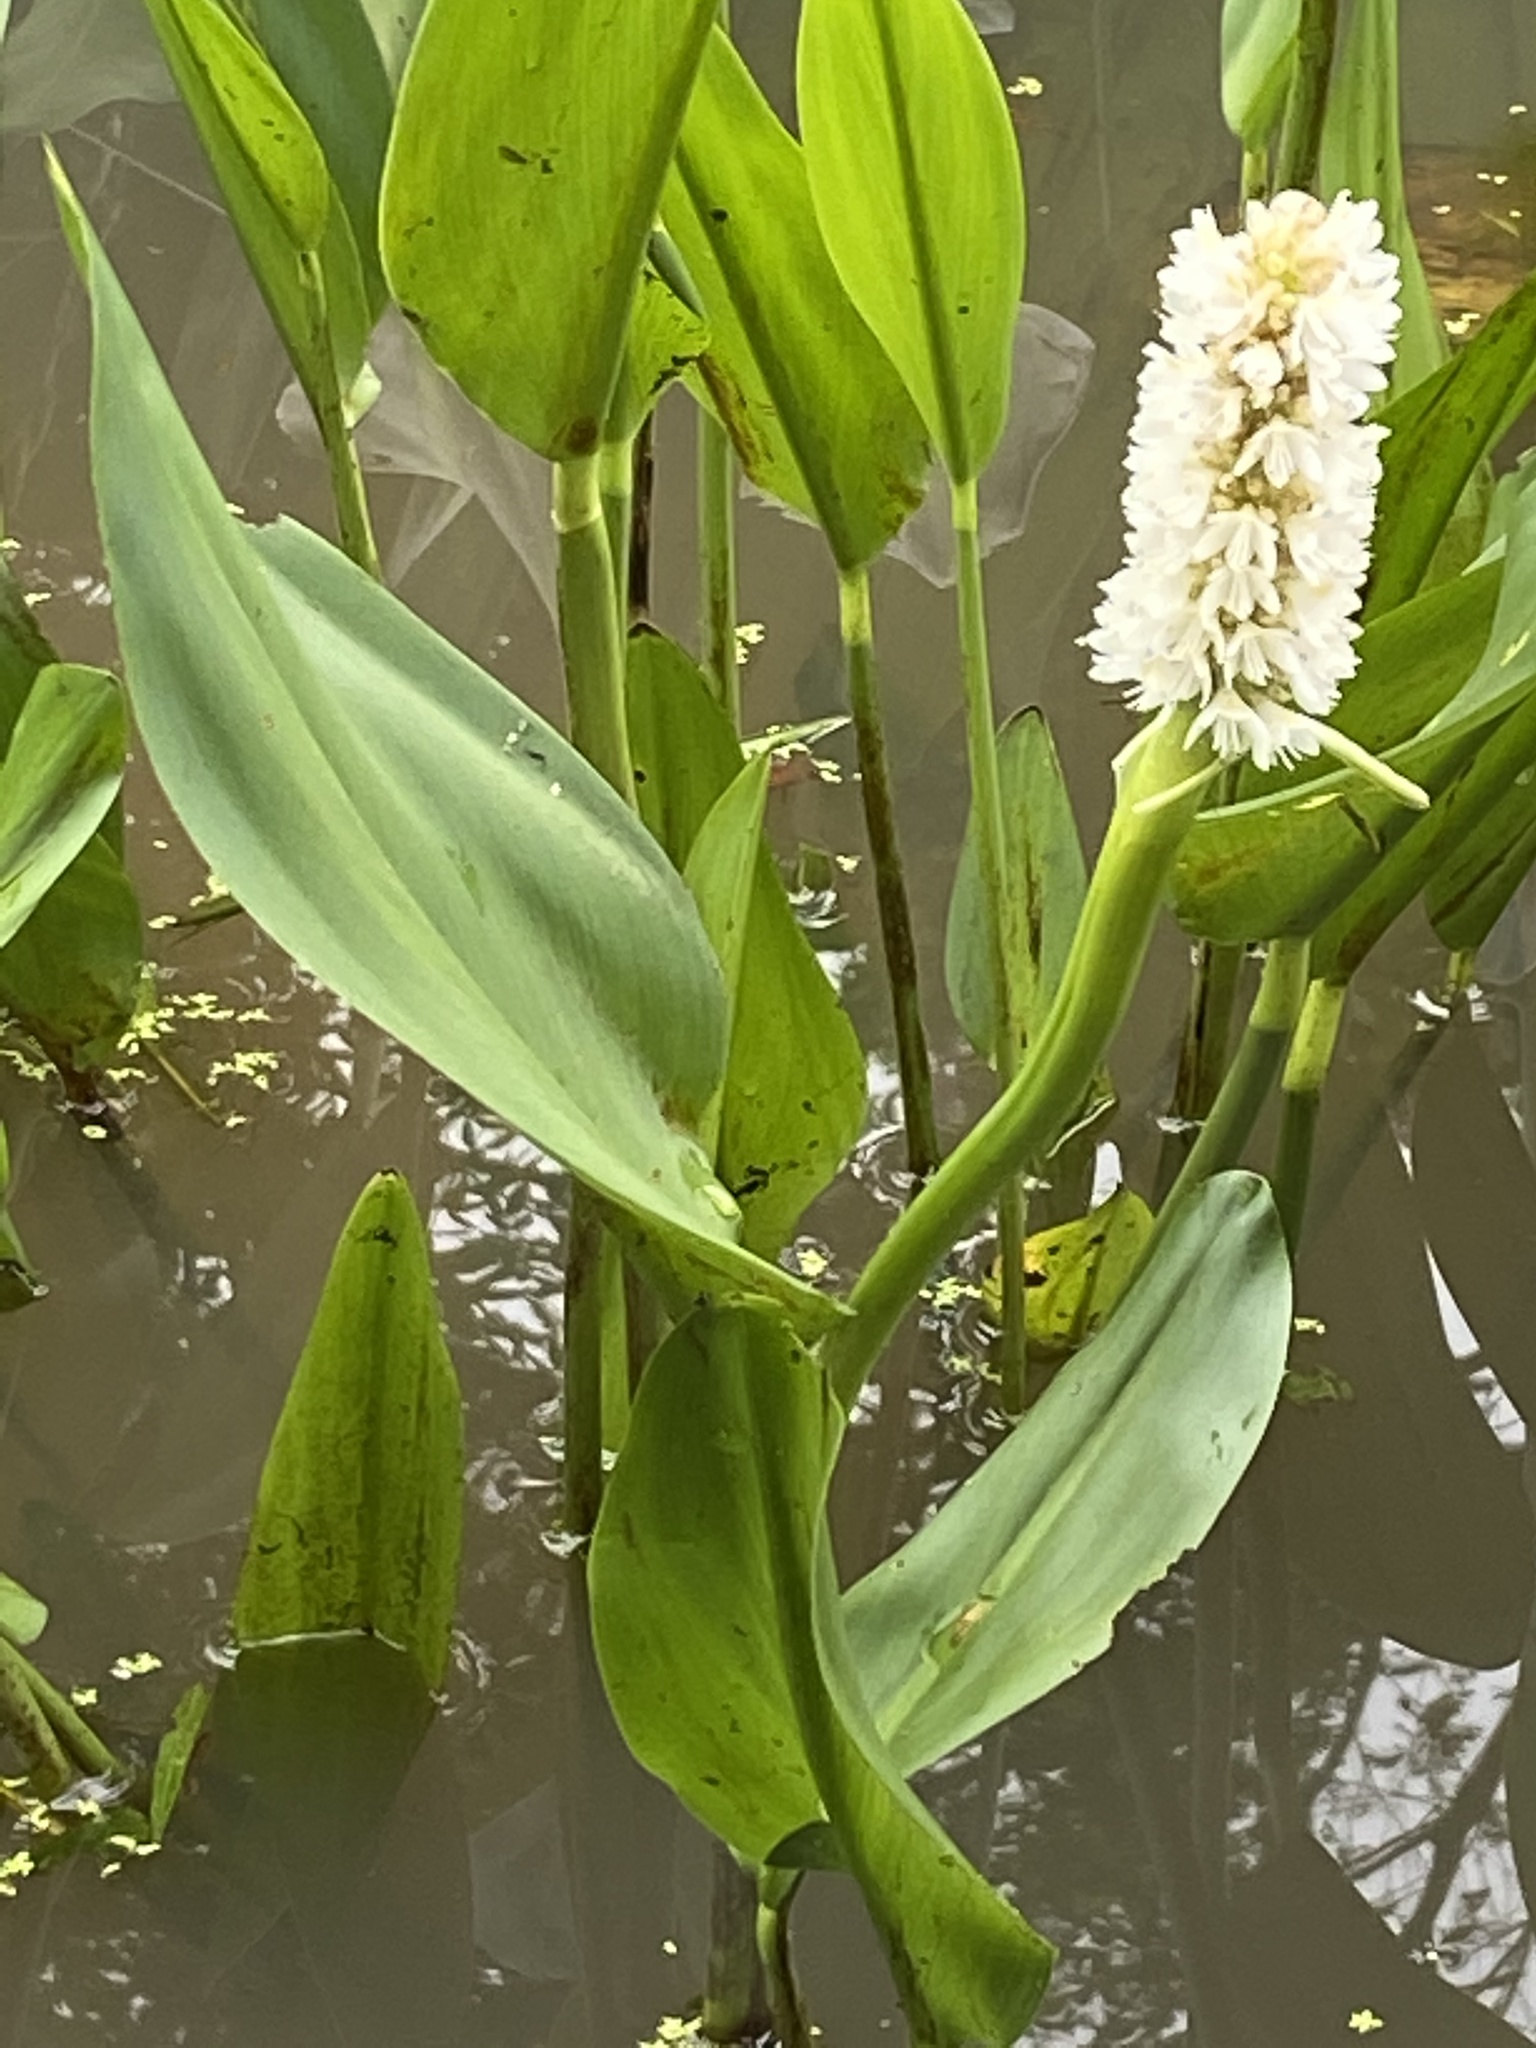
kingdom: Plantae
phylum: Tracheophyta
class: Liliopsida
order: Commelinales
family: Pontederiaceae
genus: Pontederia
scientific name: Pontederia reflexa
